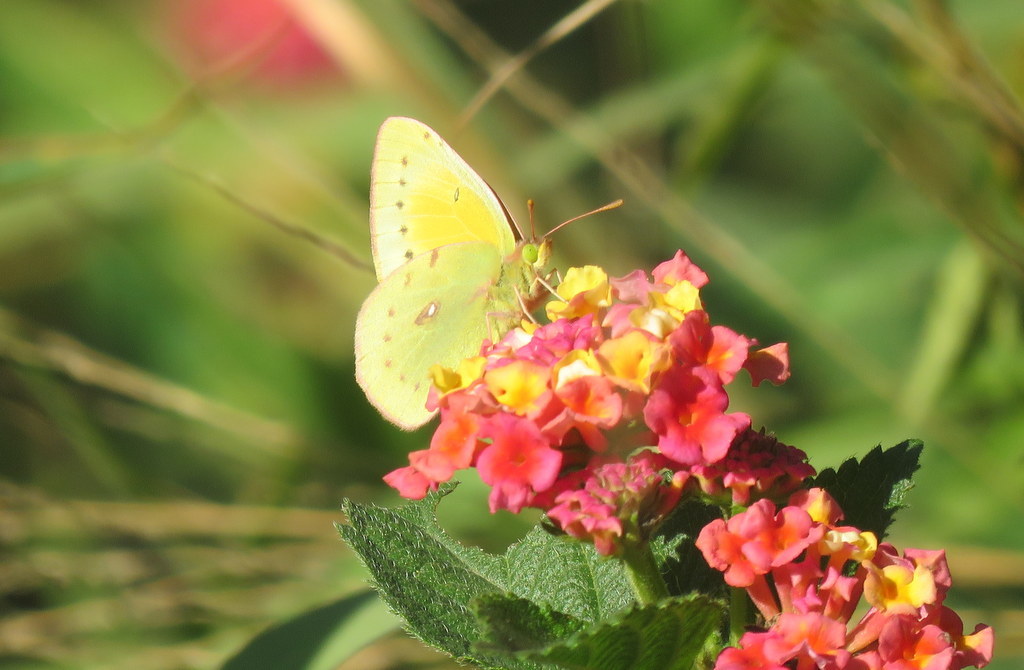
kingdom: Animalia
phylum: Arthropoda
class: Insecta
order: Lepidoptera
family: Pieridae
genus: Colias
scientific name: Colias lesbia
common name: Lesbia clouded yellow
